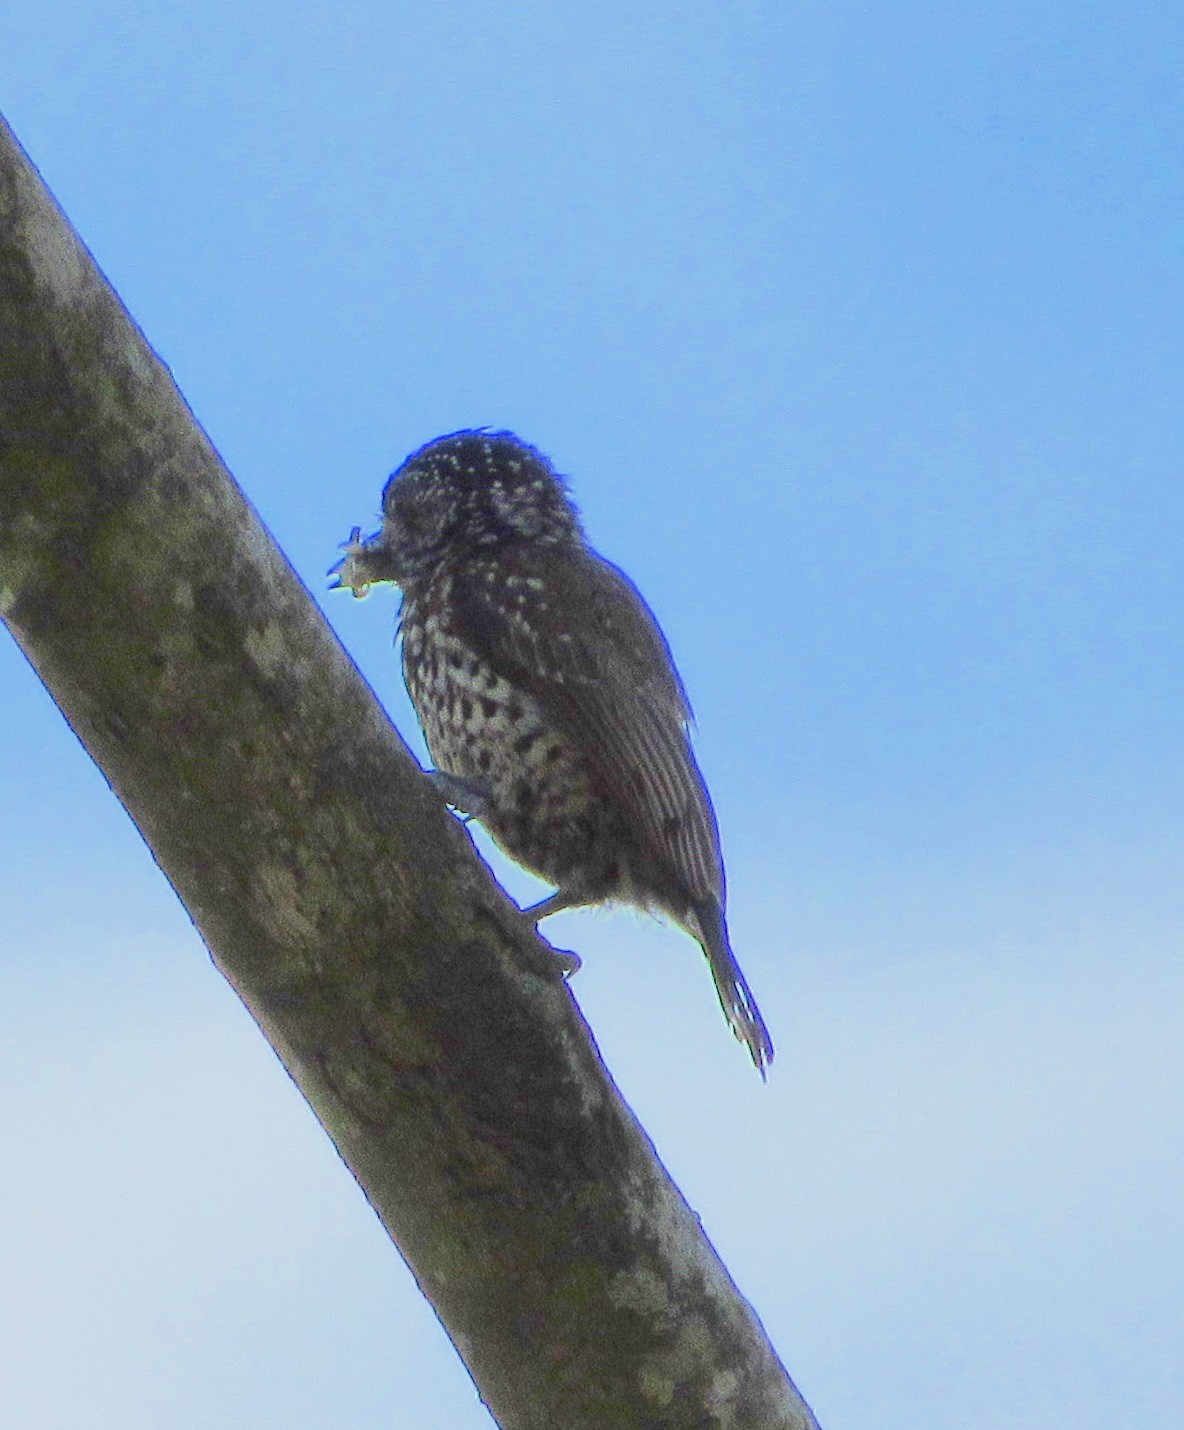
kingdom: Animalia
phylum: Chordata
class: Aves
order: Piciformes
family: Picidae
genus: Picumnus
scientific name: Picumnus albosquamatus
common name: White-wedged piculet
